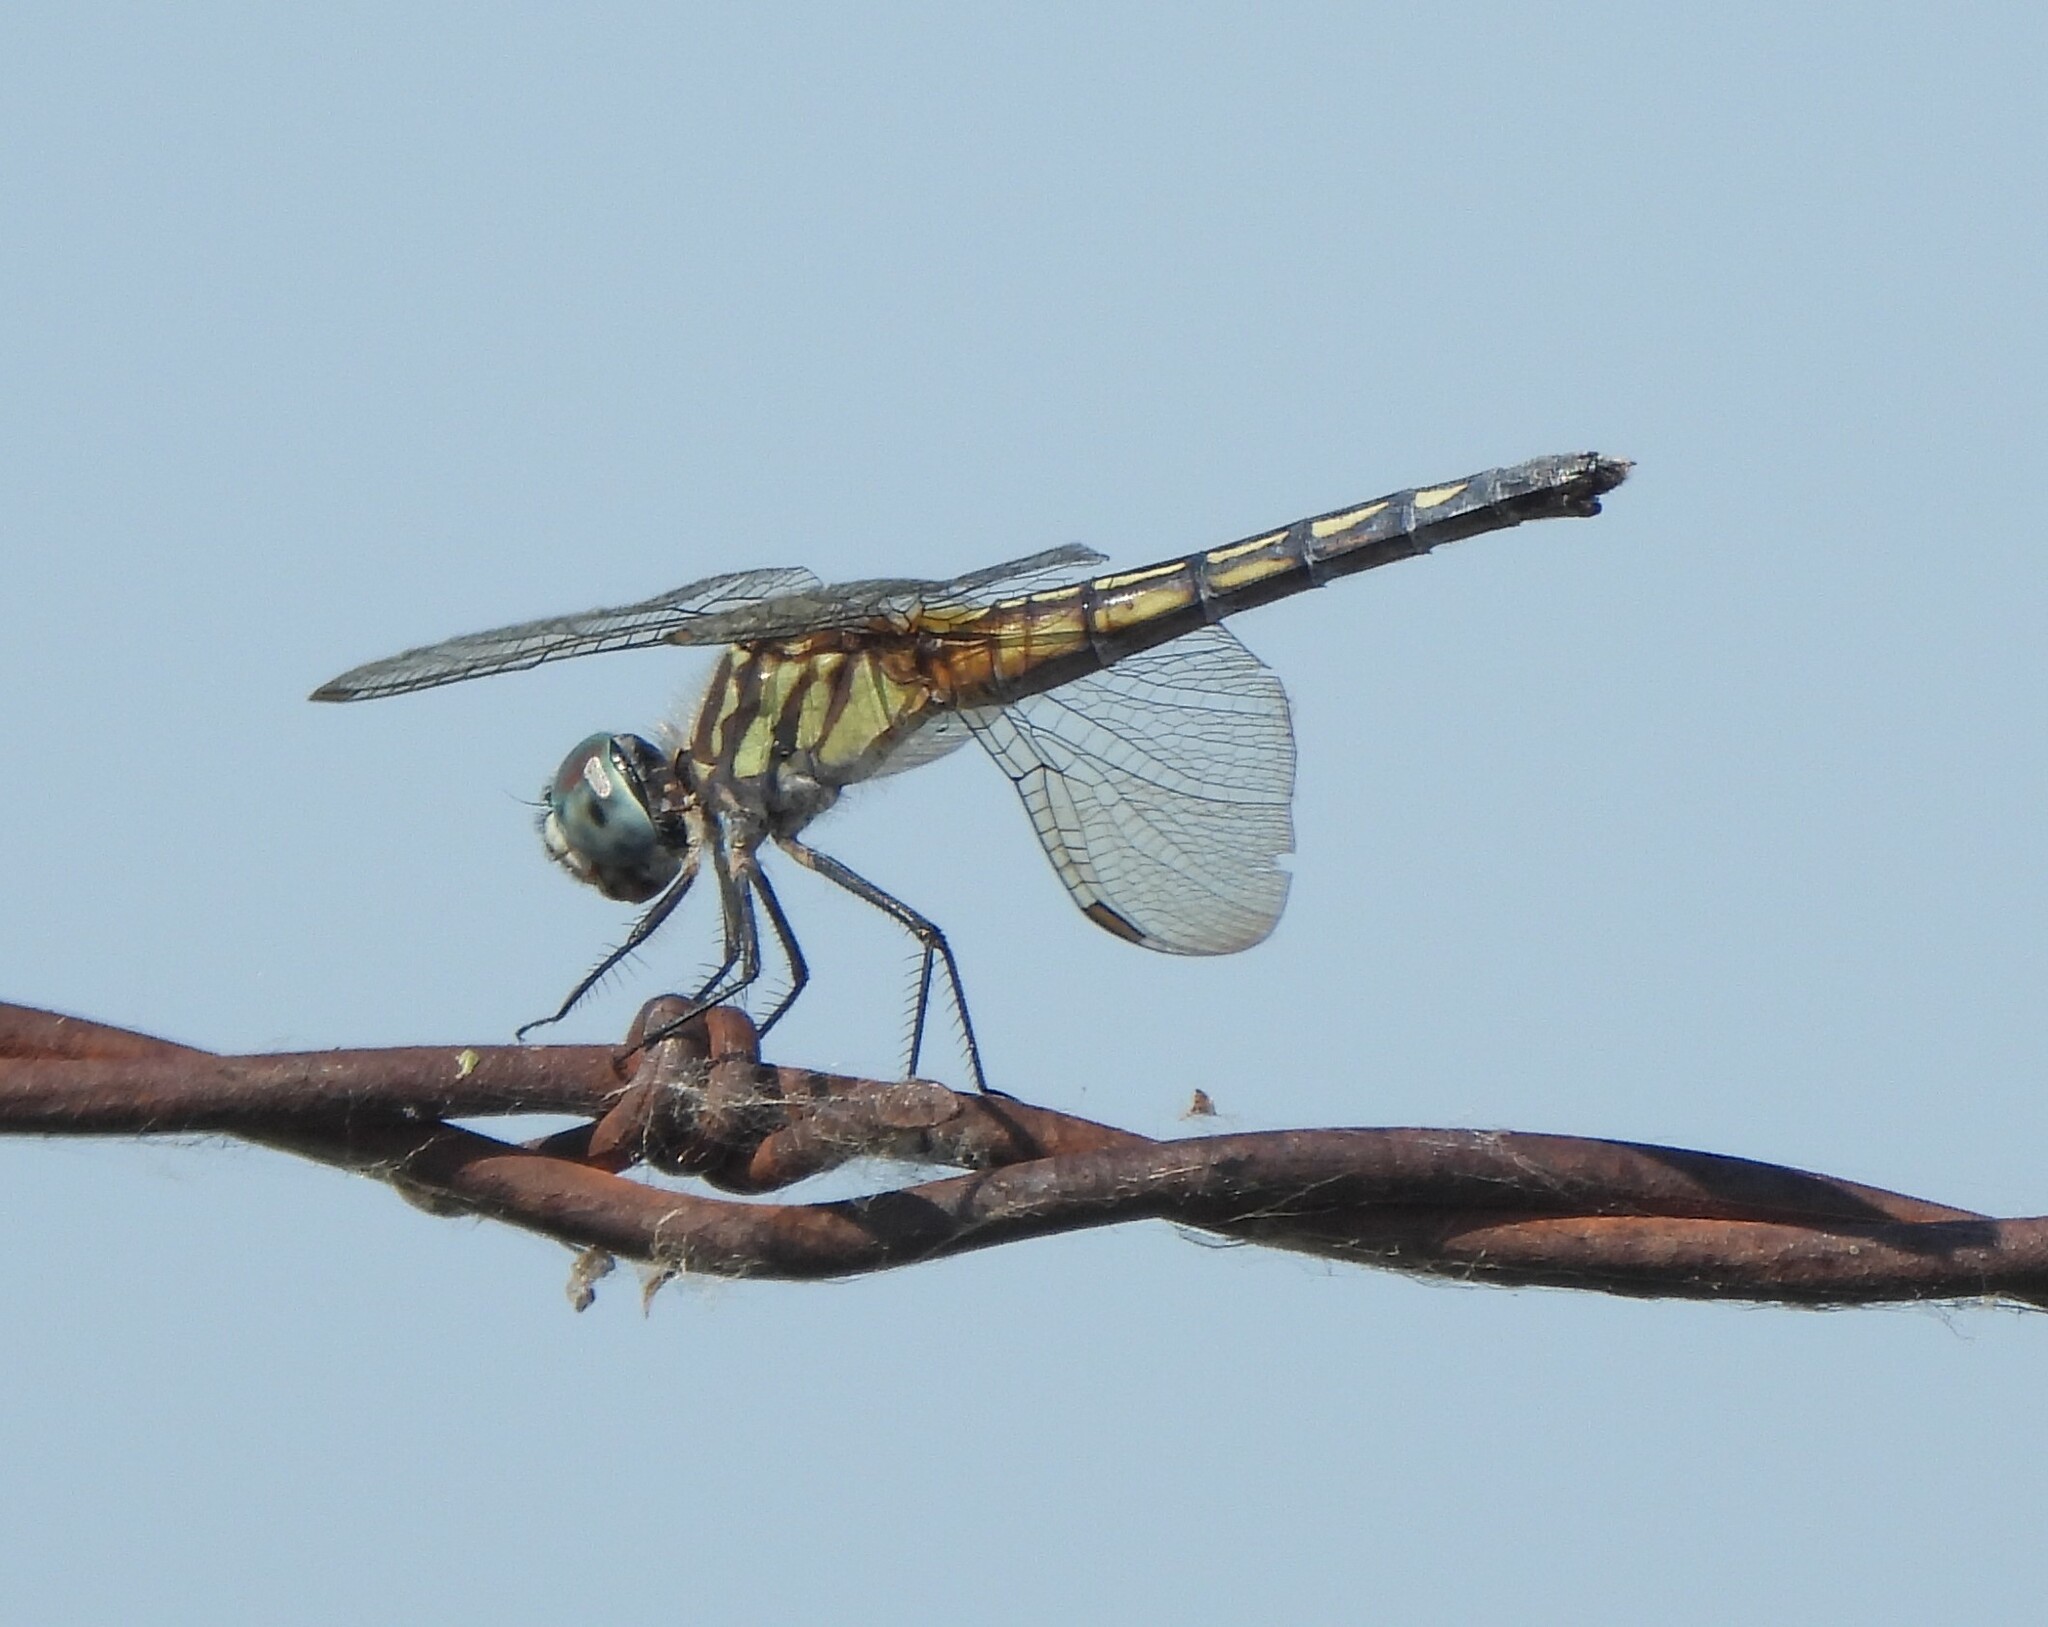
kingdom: Animalia
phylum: Arthropoda
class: Insecta
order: Odonata
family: Libellulidae
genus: Pachydiplax
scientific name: Pachydiplax longipennis
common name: Blue dasher
